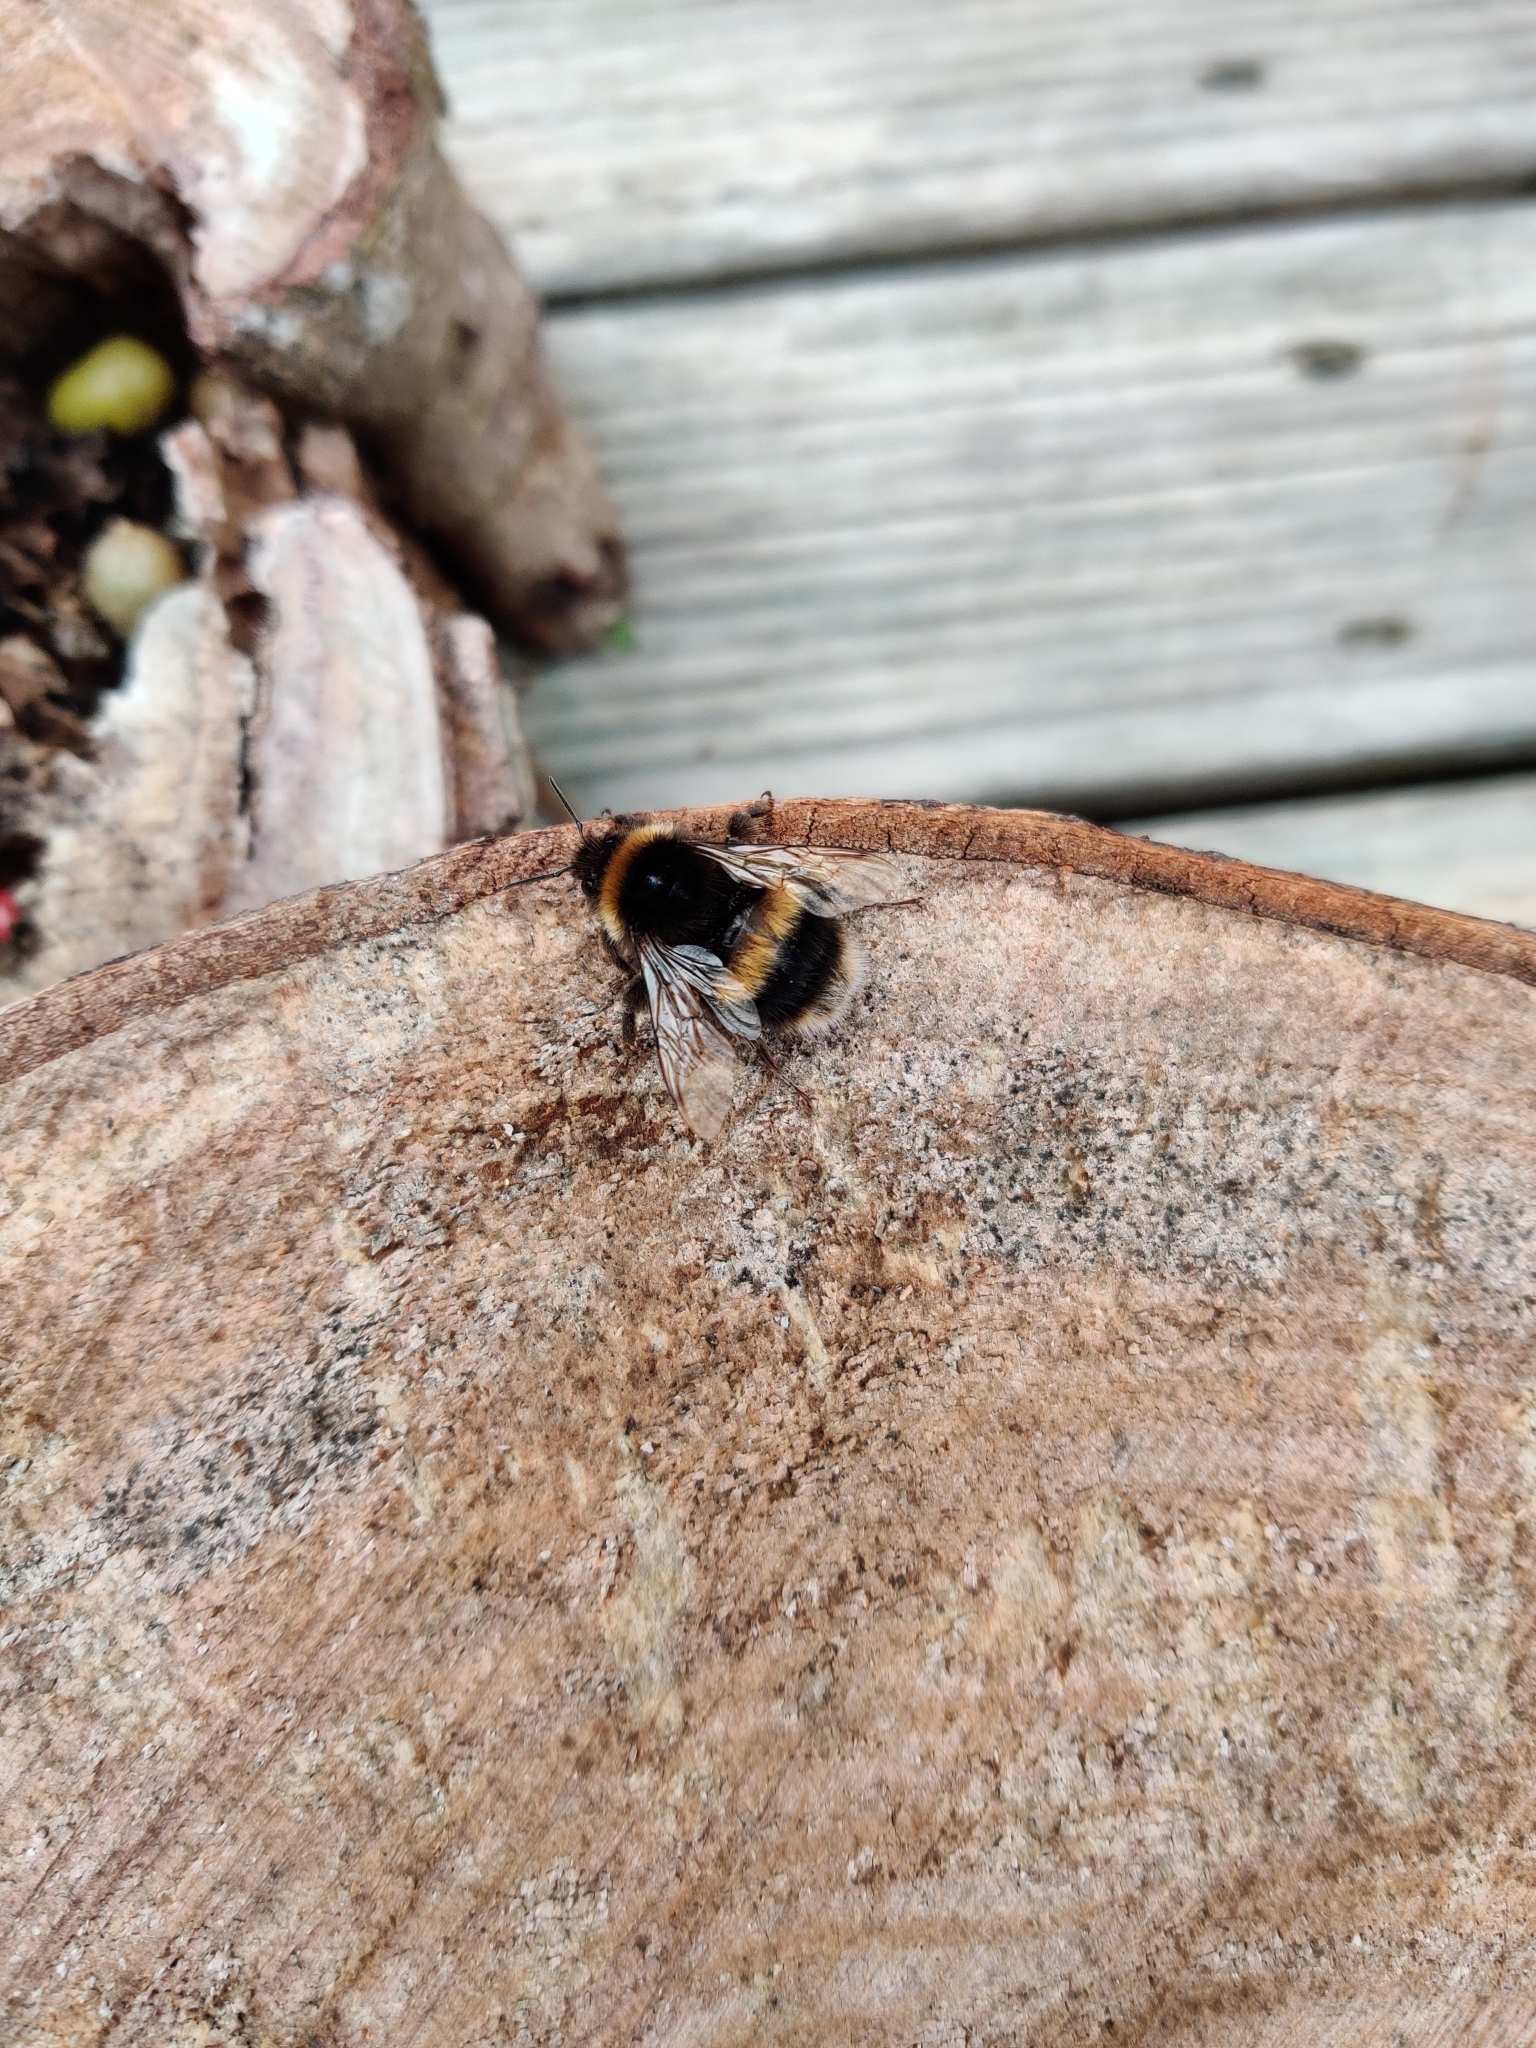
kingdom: Animalia
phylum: Arthropoda
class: Insecta
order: Hymenoptera
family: Apidae
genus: Bombus
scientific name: Bombus terrestris
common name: Buff-tailed bumblebee
